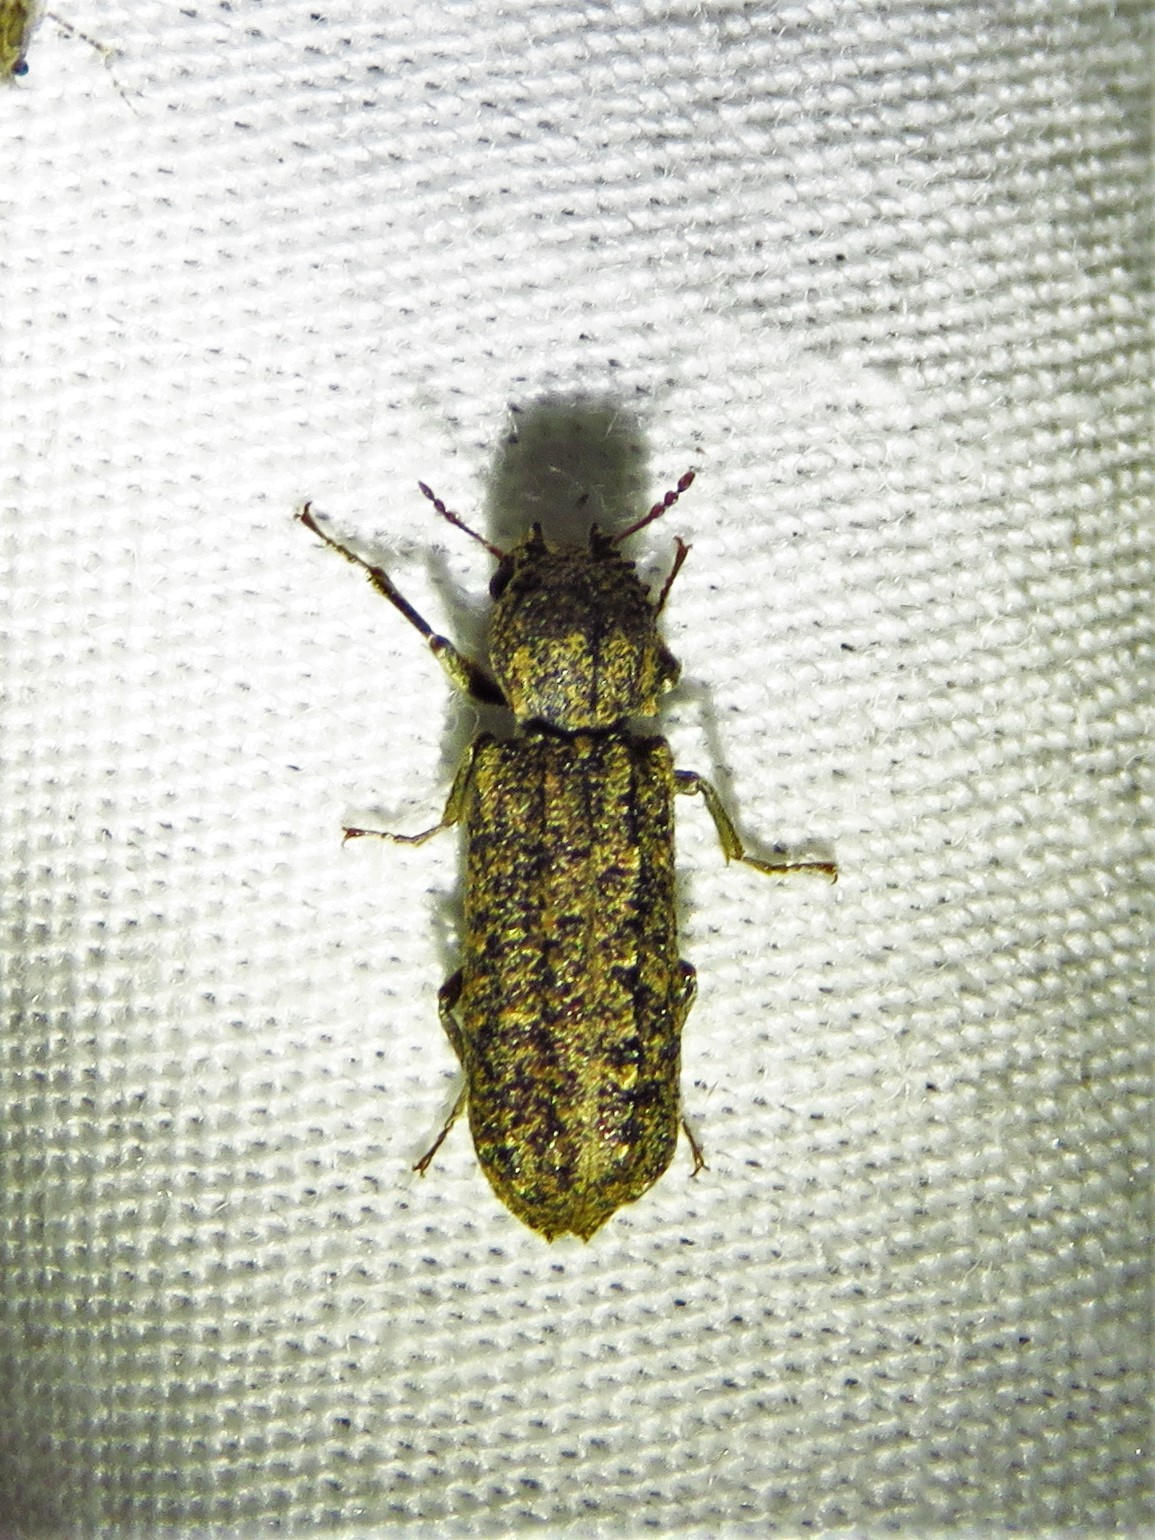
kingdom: Animalia
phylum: Arthropoda
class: Insecta
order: Coleoptera
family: Bostrichidae
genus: Lichenophanes
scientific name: Lichenophanes bicornis
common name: Two-horned powder-post beetle
